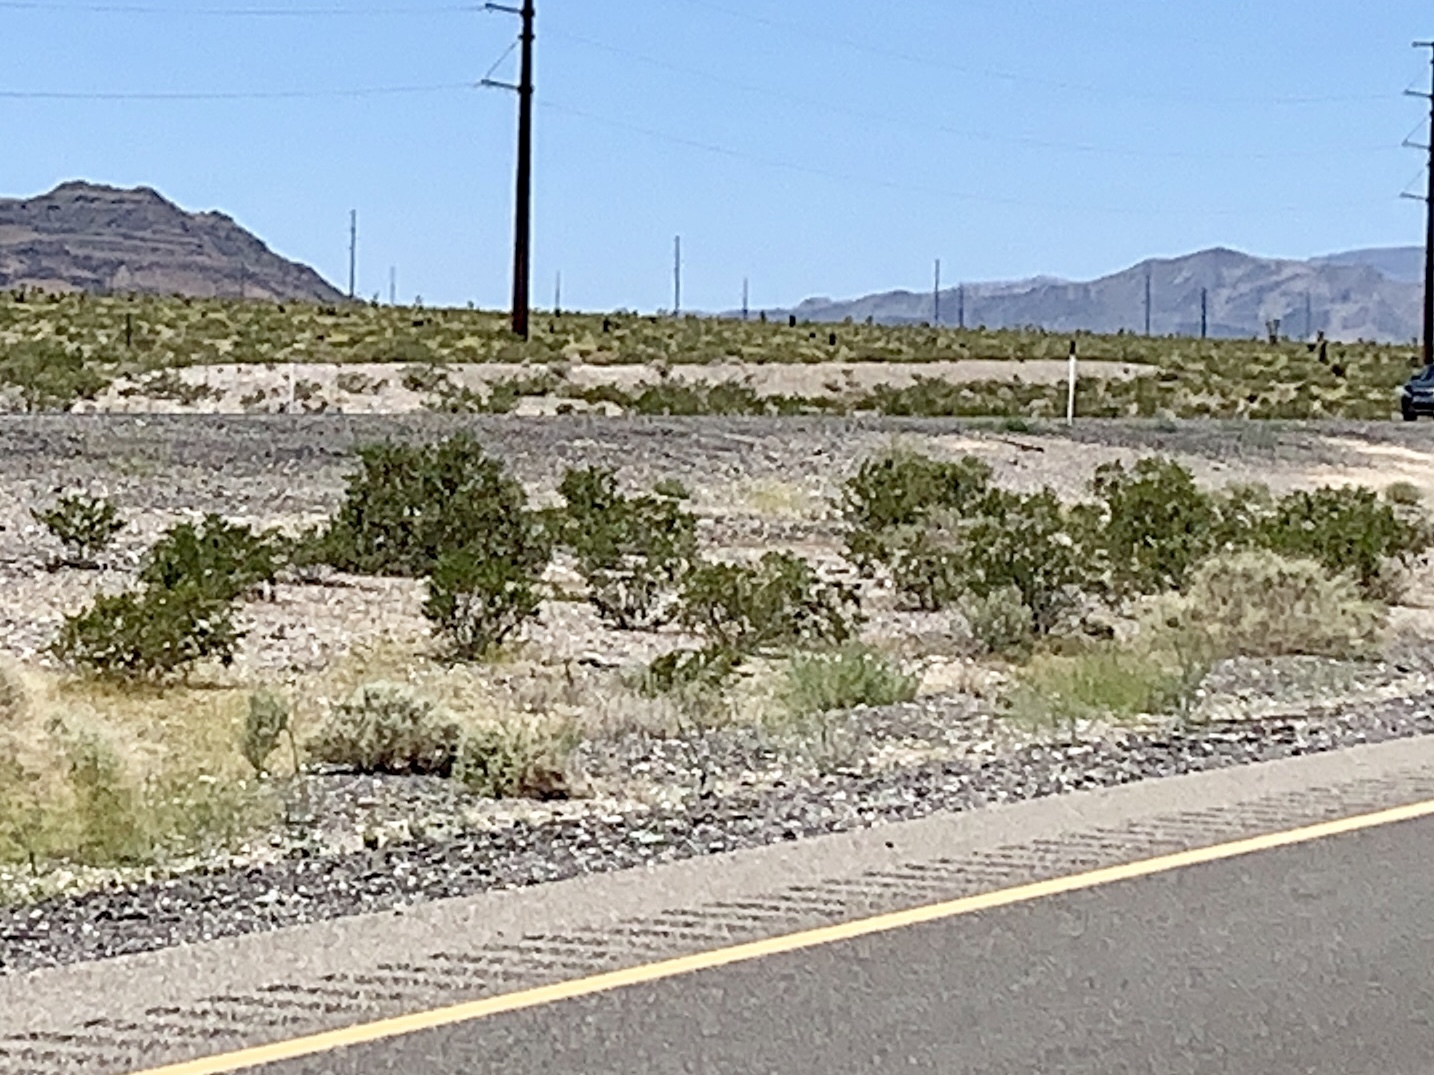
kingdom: Plantae
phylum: Tracheophyta
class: Magnoliopsida
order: Zygophyllales
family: Zygophyllaceae
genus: Larrea
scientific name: Larrea tridentata
